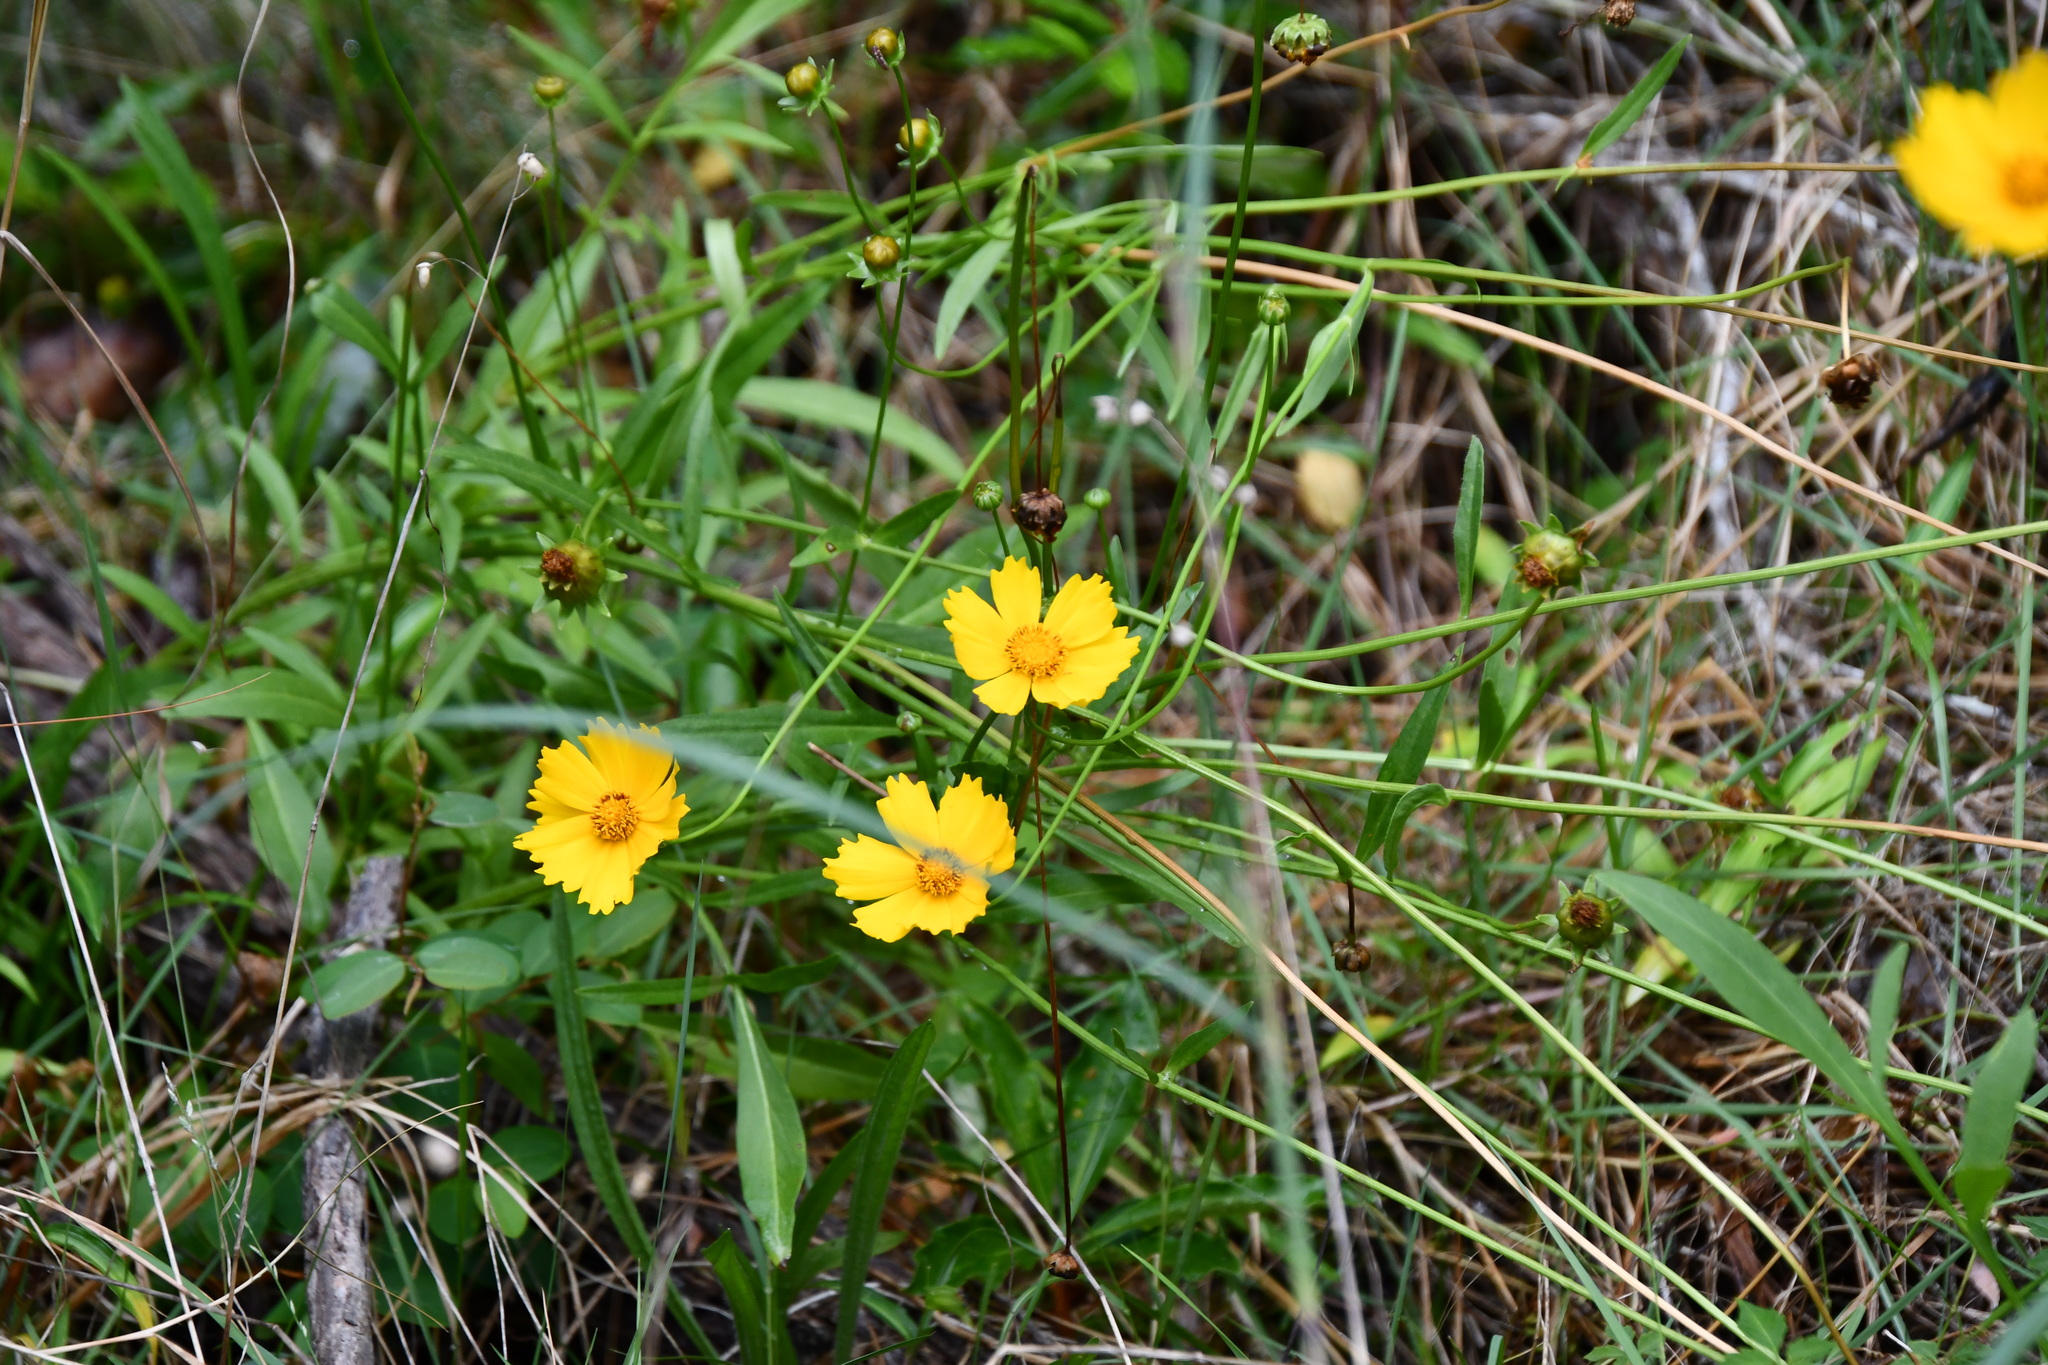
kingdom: Plantae
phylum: Tracheophyta
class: Magnoliopsida
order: Asterales
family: Asteraceae
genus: Coreopsis
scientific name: Coreopsis lanceolata
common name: Garden coreopsis
